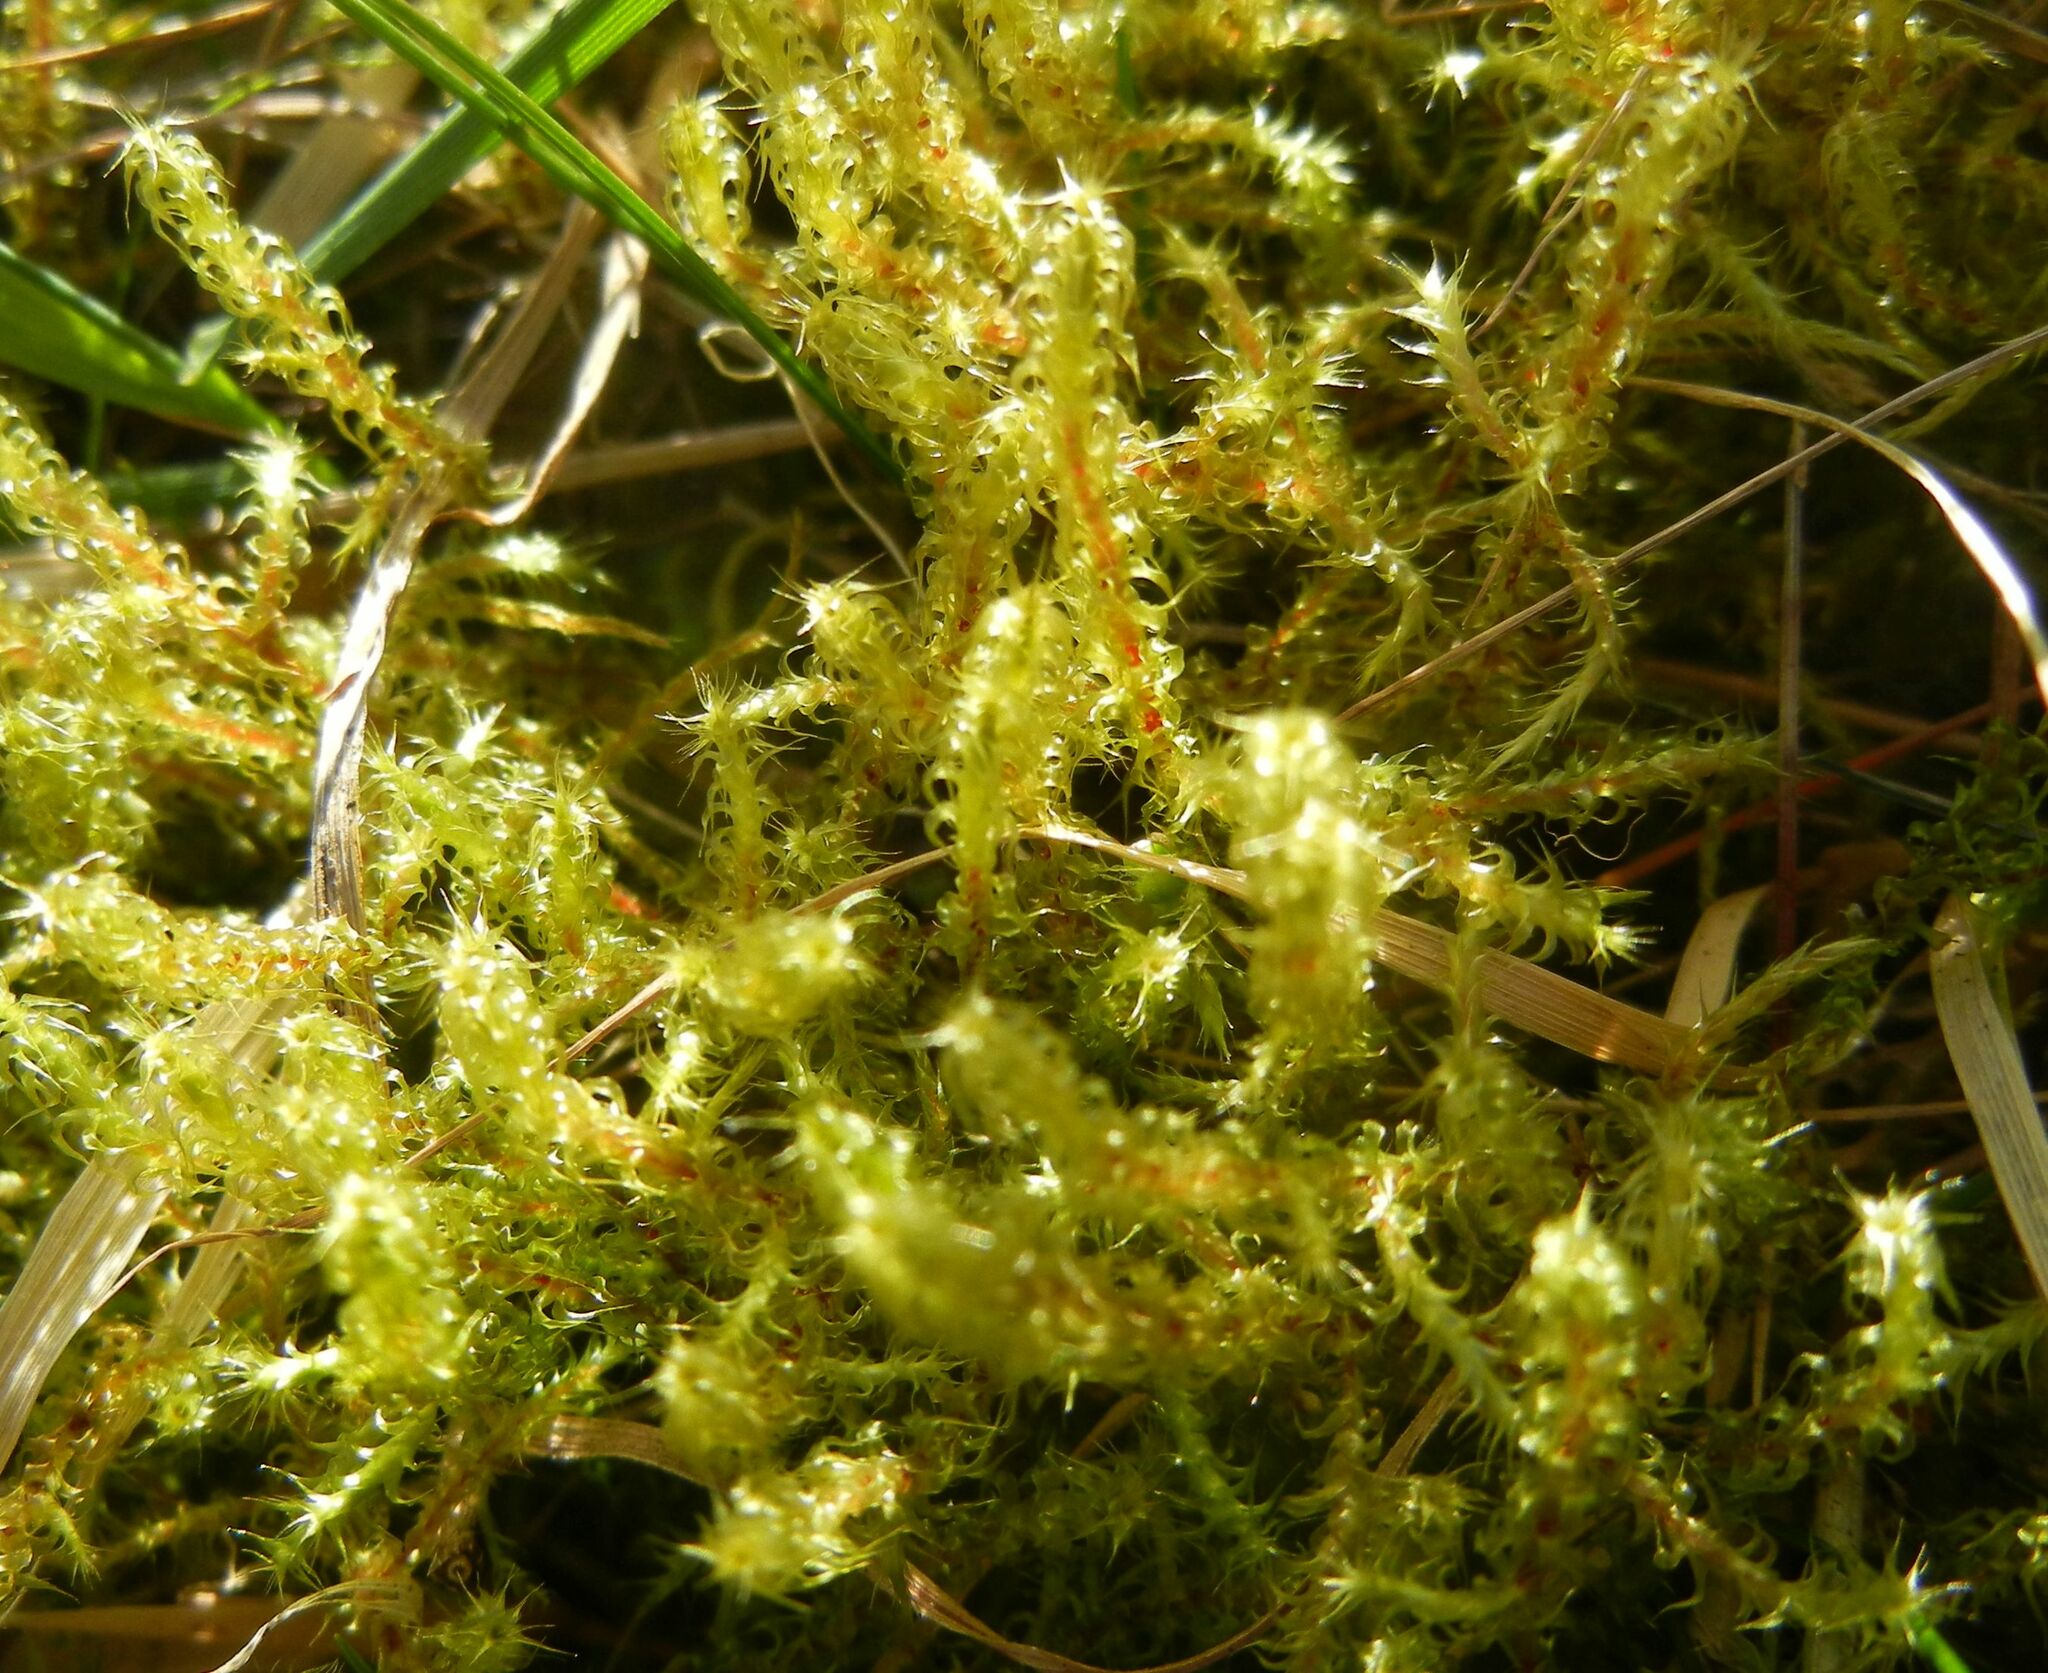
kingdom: Plantae
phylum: Bryophyta
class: Bryopsida
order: Hypnales
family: Hylocomiaceae
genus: Rhytidiadelphus
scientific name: Rhytidiadelphus squarrosus
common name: Springy turf-moss
